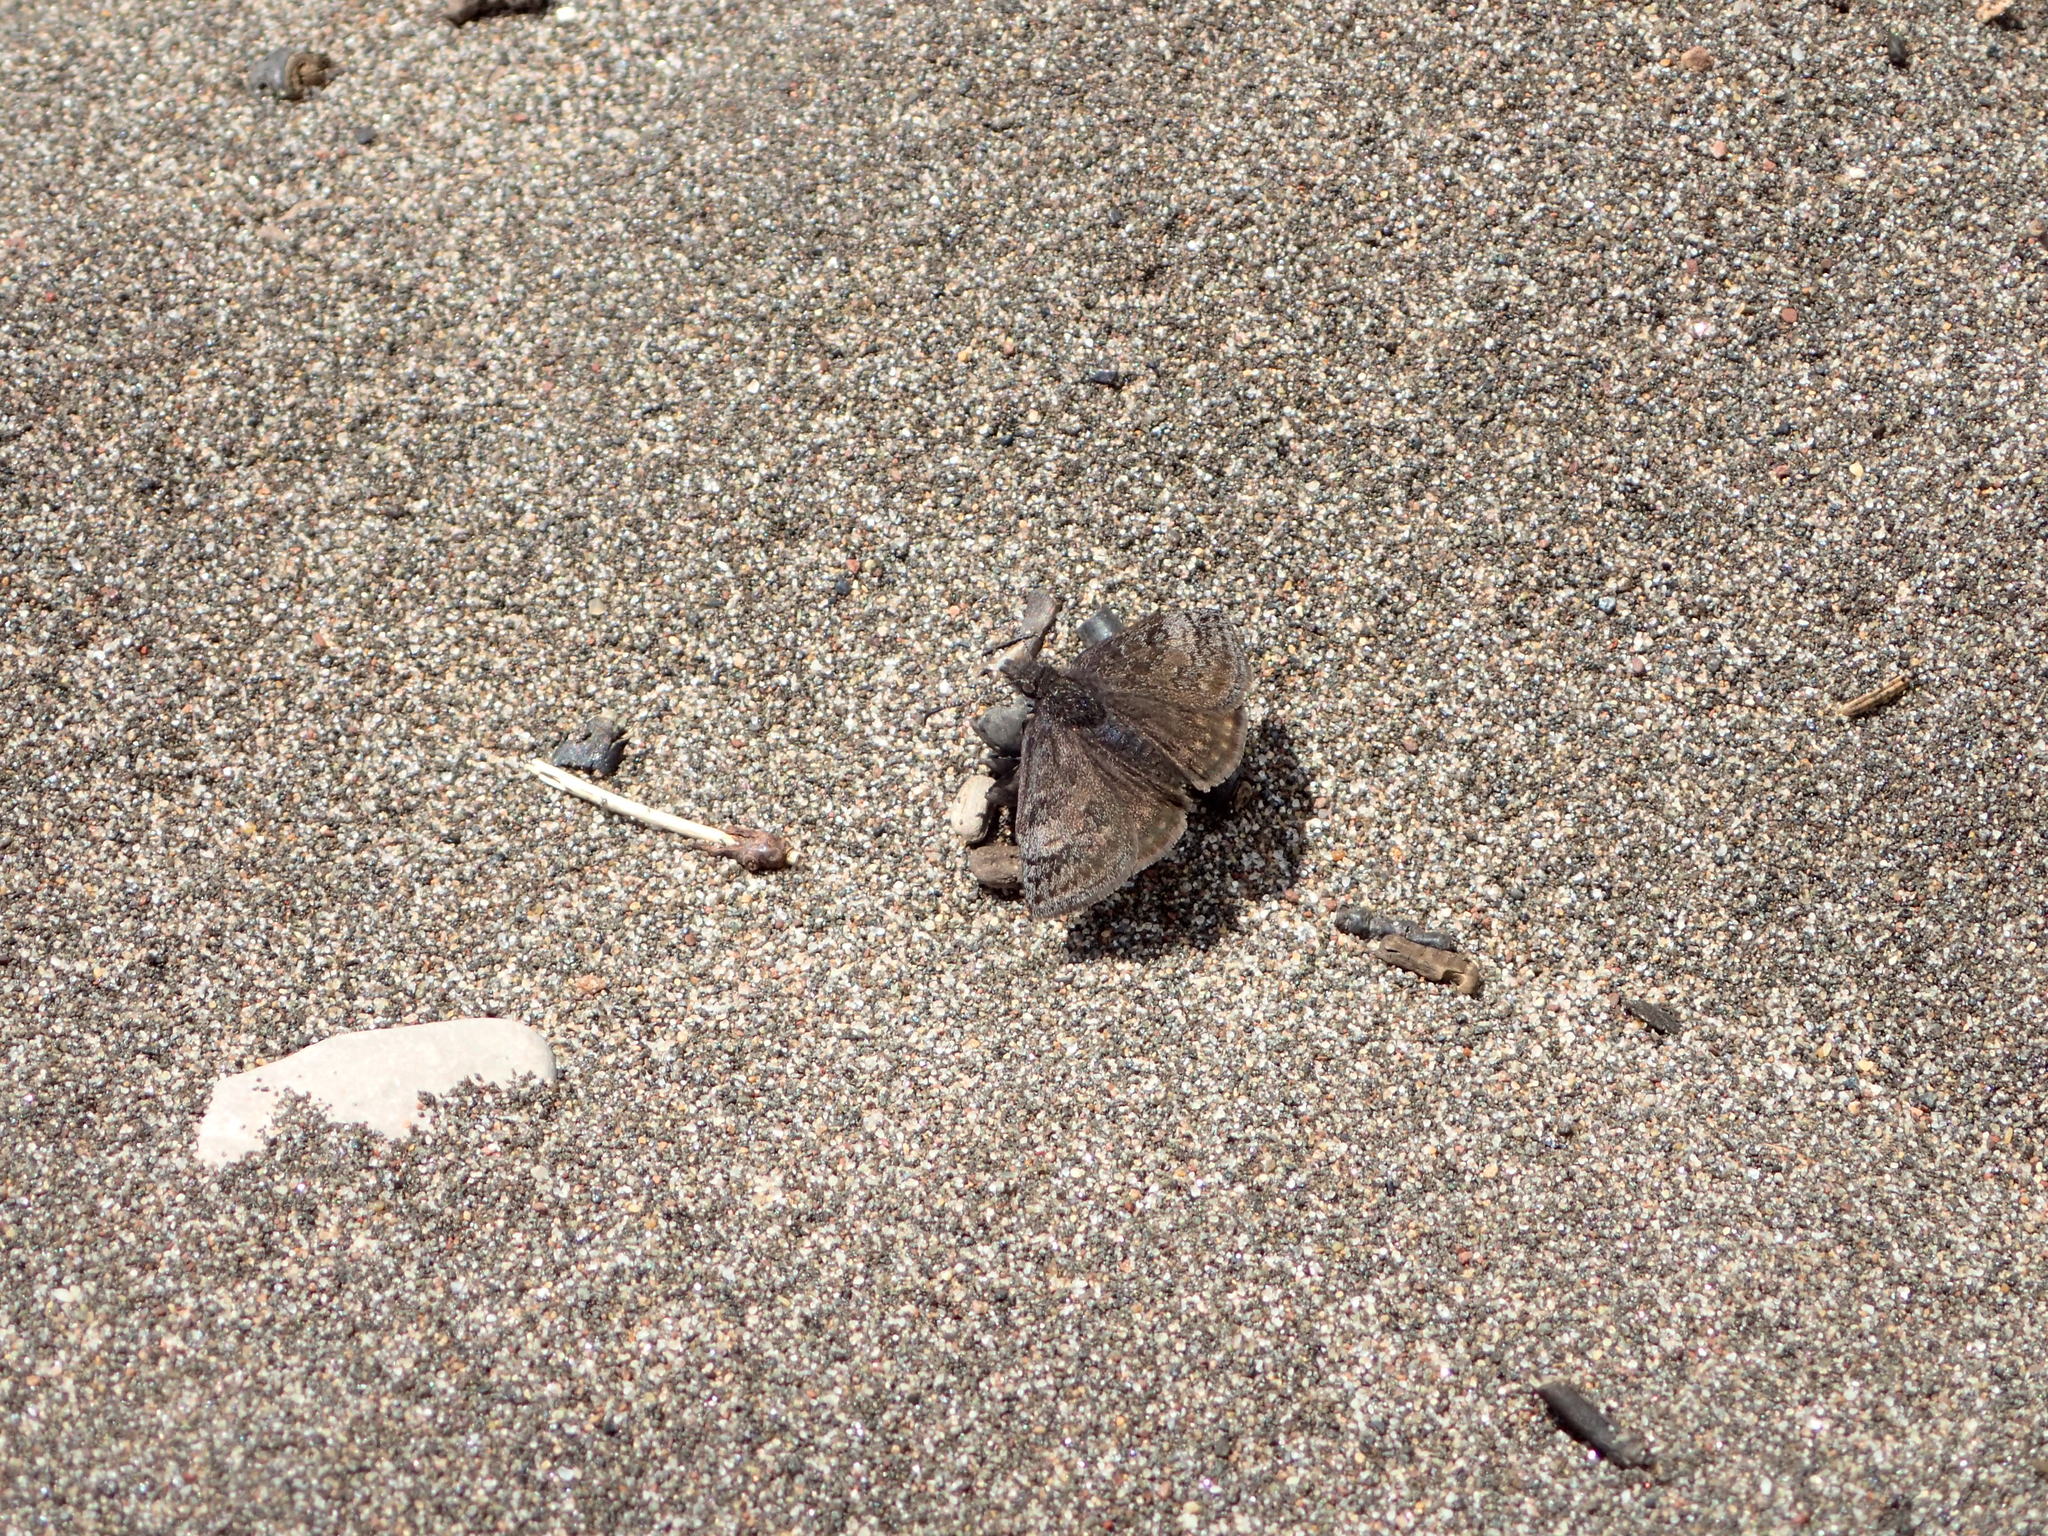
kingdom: Animalia
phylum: Arthropoda
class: Insecta
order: Lepidoptera
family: Hesperiidae
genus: Erynnis
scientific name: Erynnis icelus
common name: Dreamy duskywing
